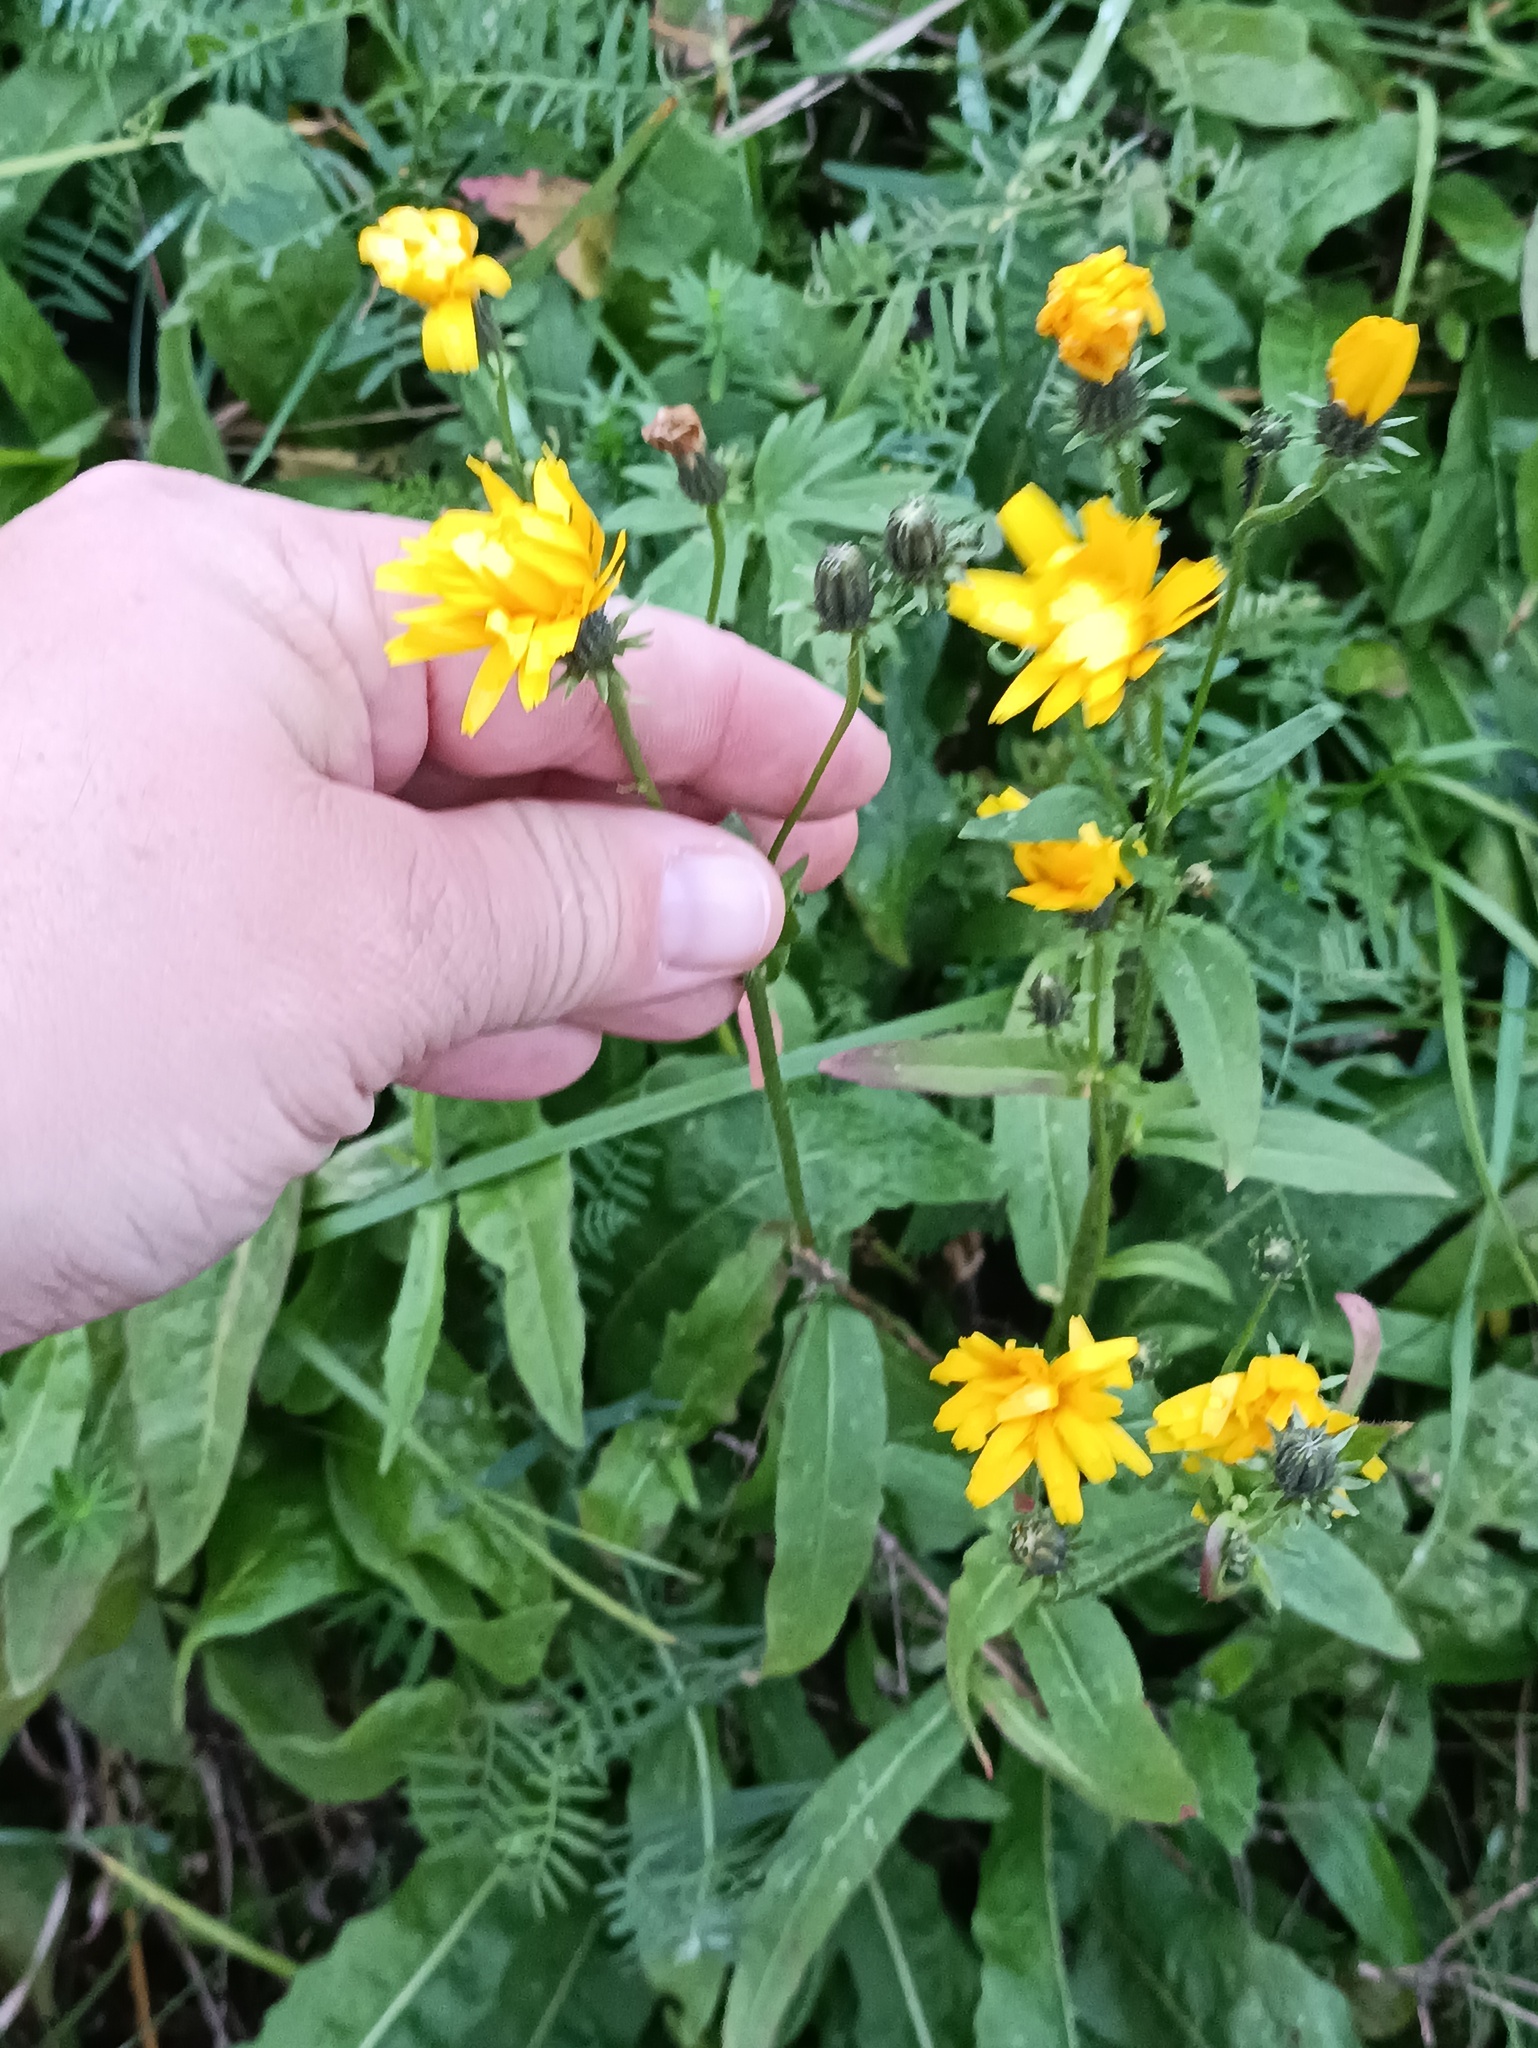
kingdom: Plantae
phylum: Tracheophyta
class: Magnoliopsida
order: Asterales
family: Asteraceae
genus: Picris
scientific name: Picris hieracioides
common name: Hawkweed oxtongue
